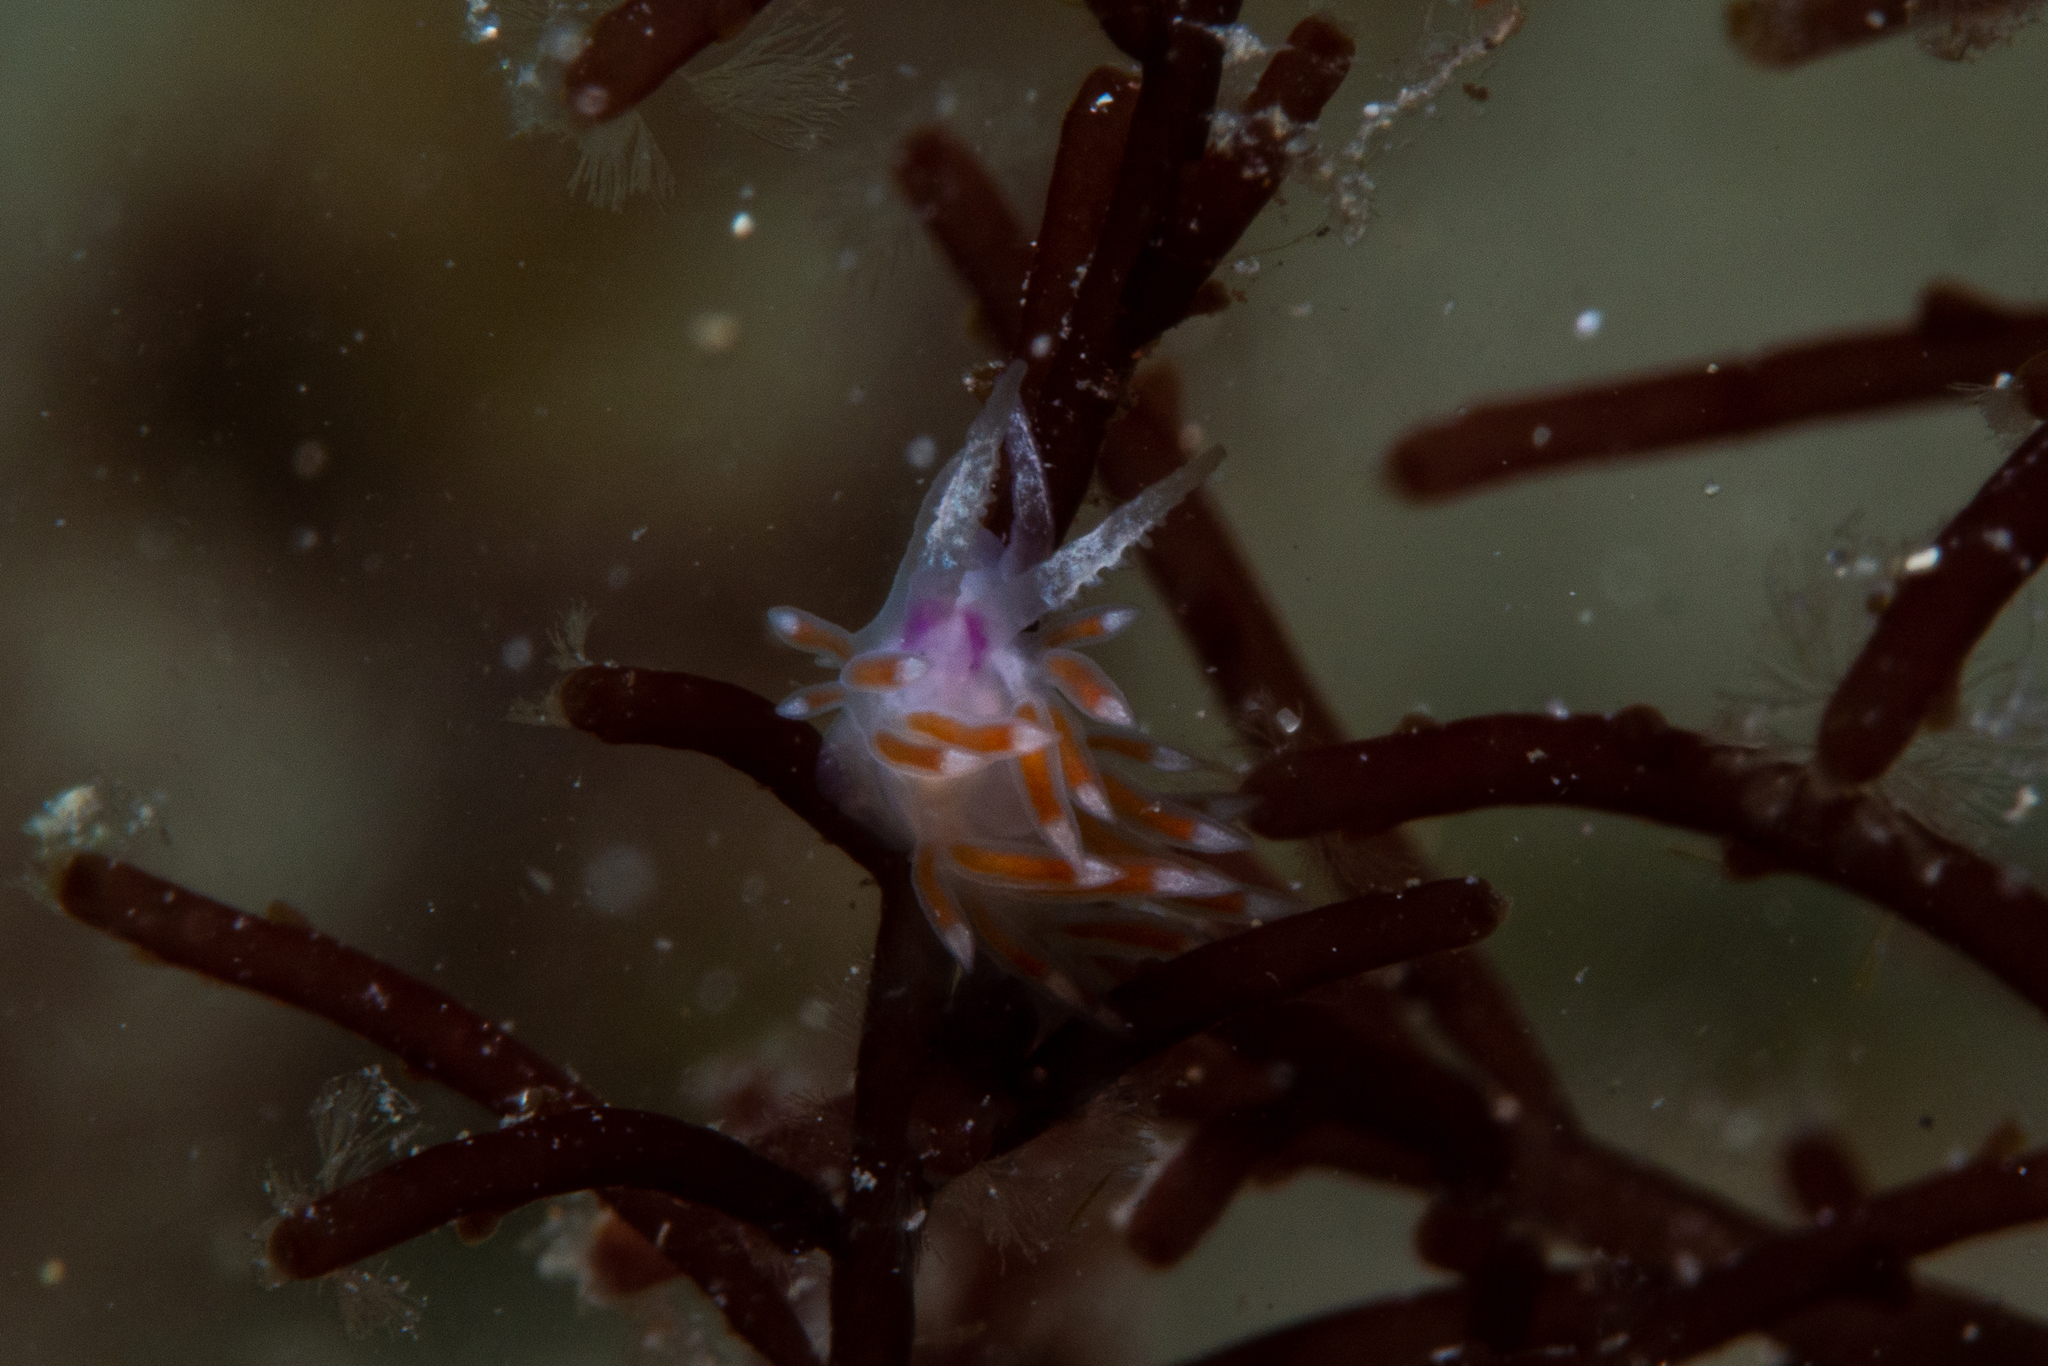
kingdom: Animalia
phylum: Mollusca
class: Gastropoda
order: Nudibranchia
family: Flabellinidae
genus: Coryphellina
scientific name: Coryphellina poenicia
